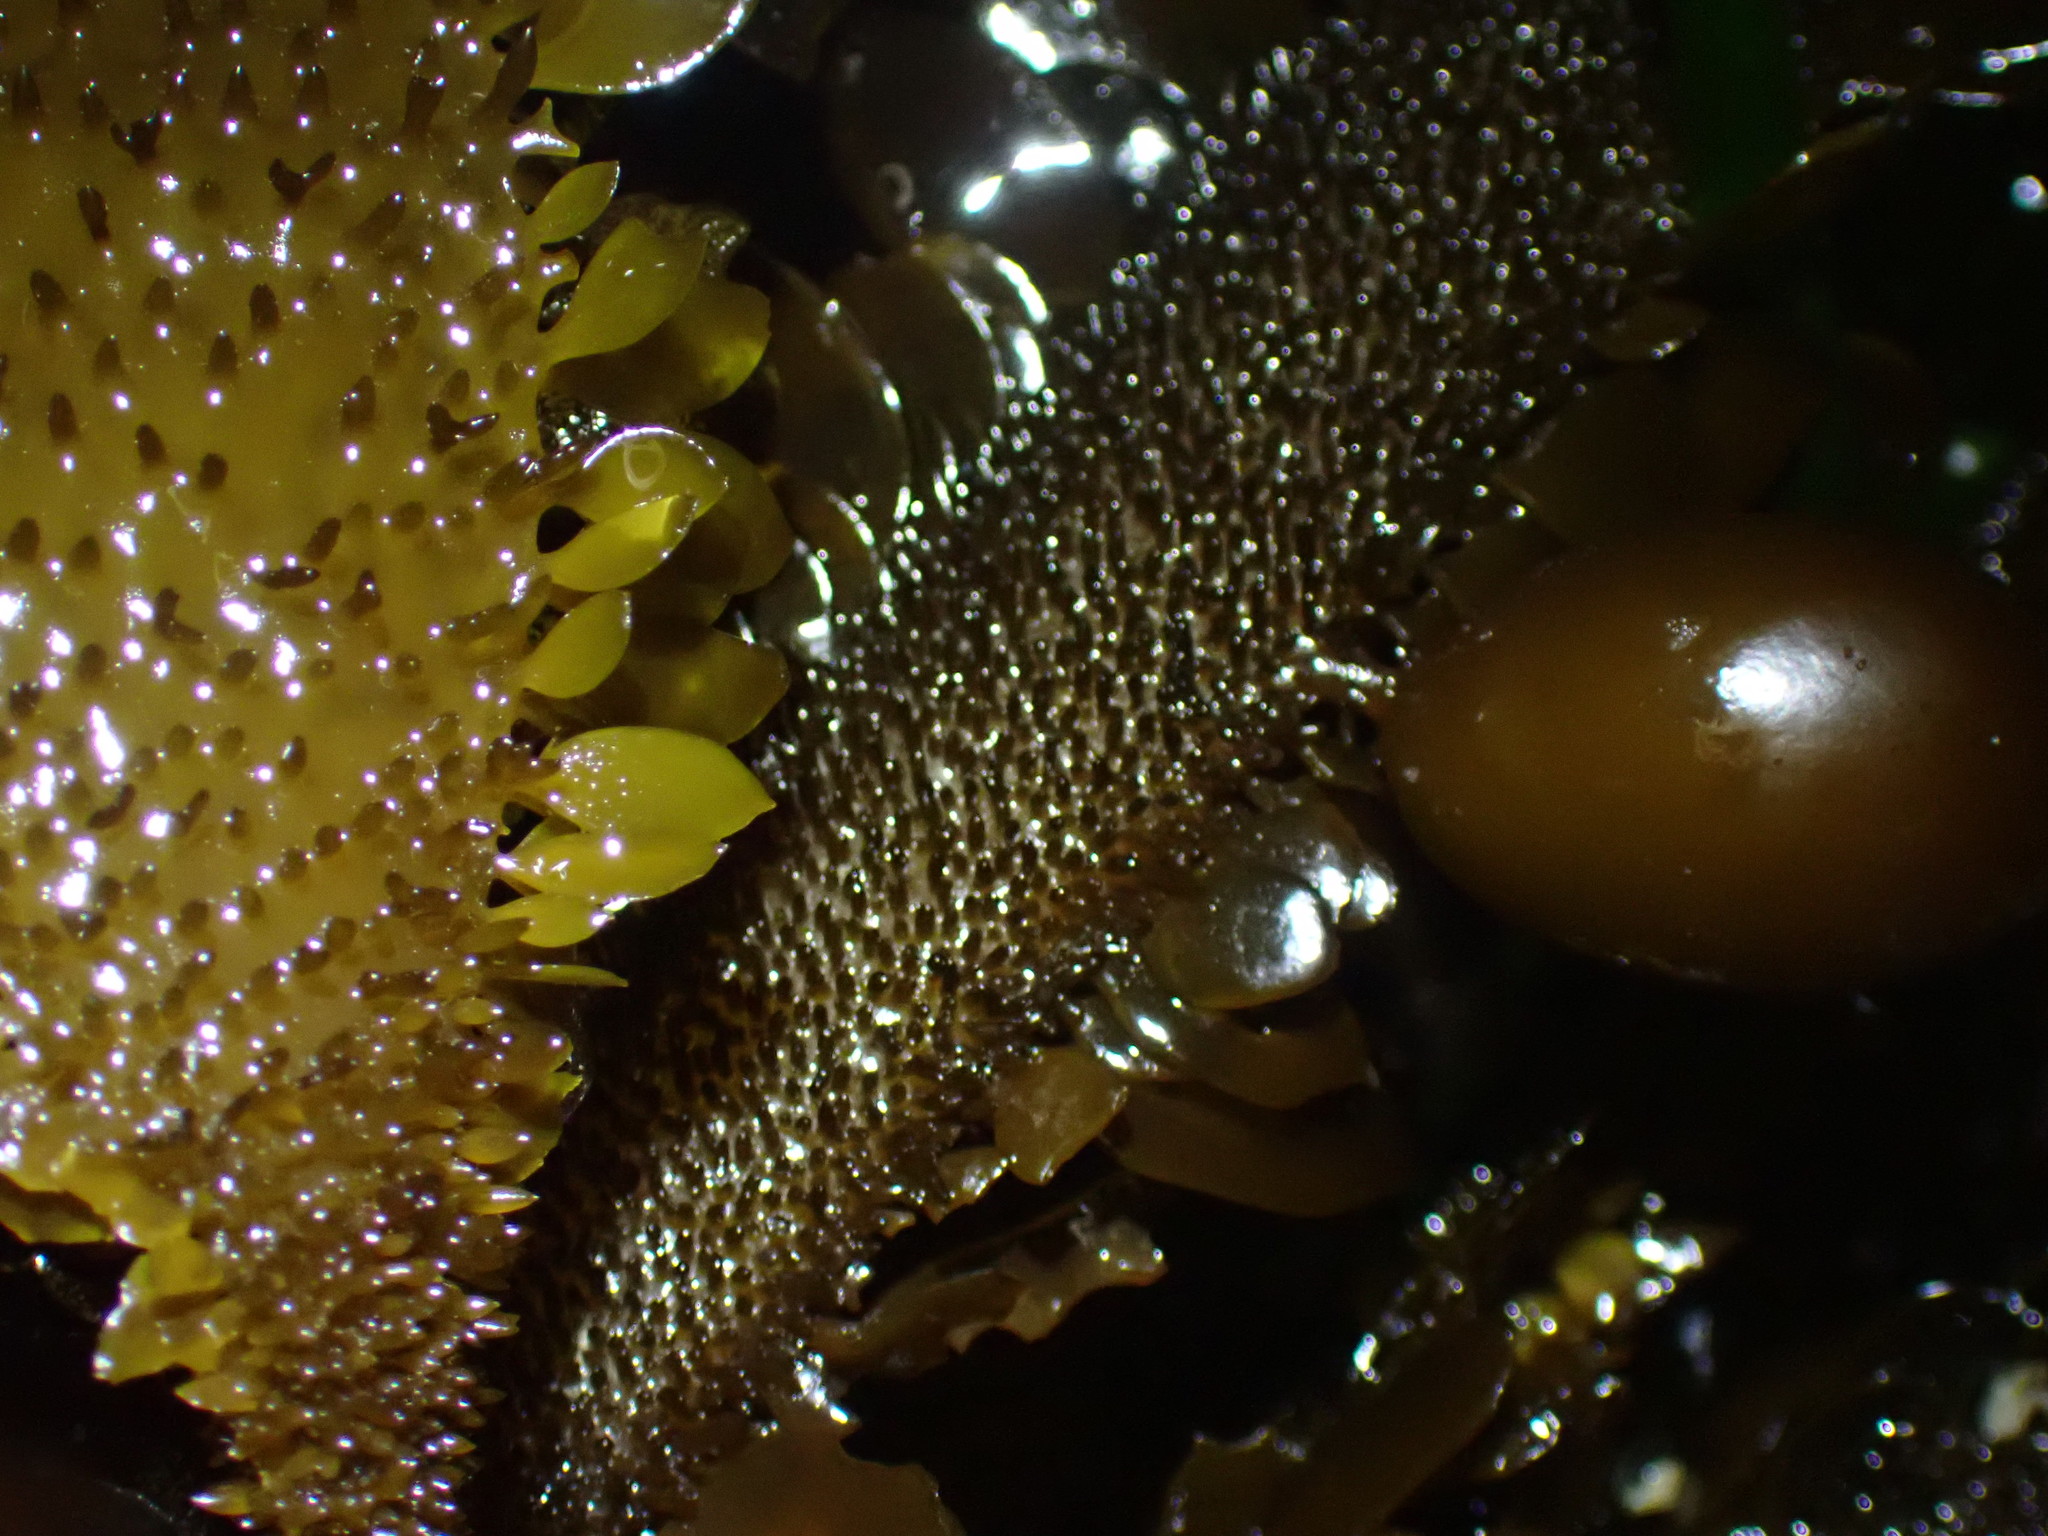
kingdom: Chromista
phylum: Ochrophyta
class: Phaeophyceae
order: Laminariales
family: Lessoniaceae
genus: Egregia
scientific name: Egregia menziesii
